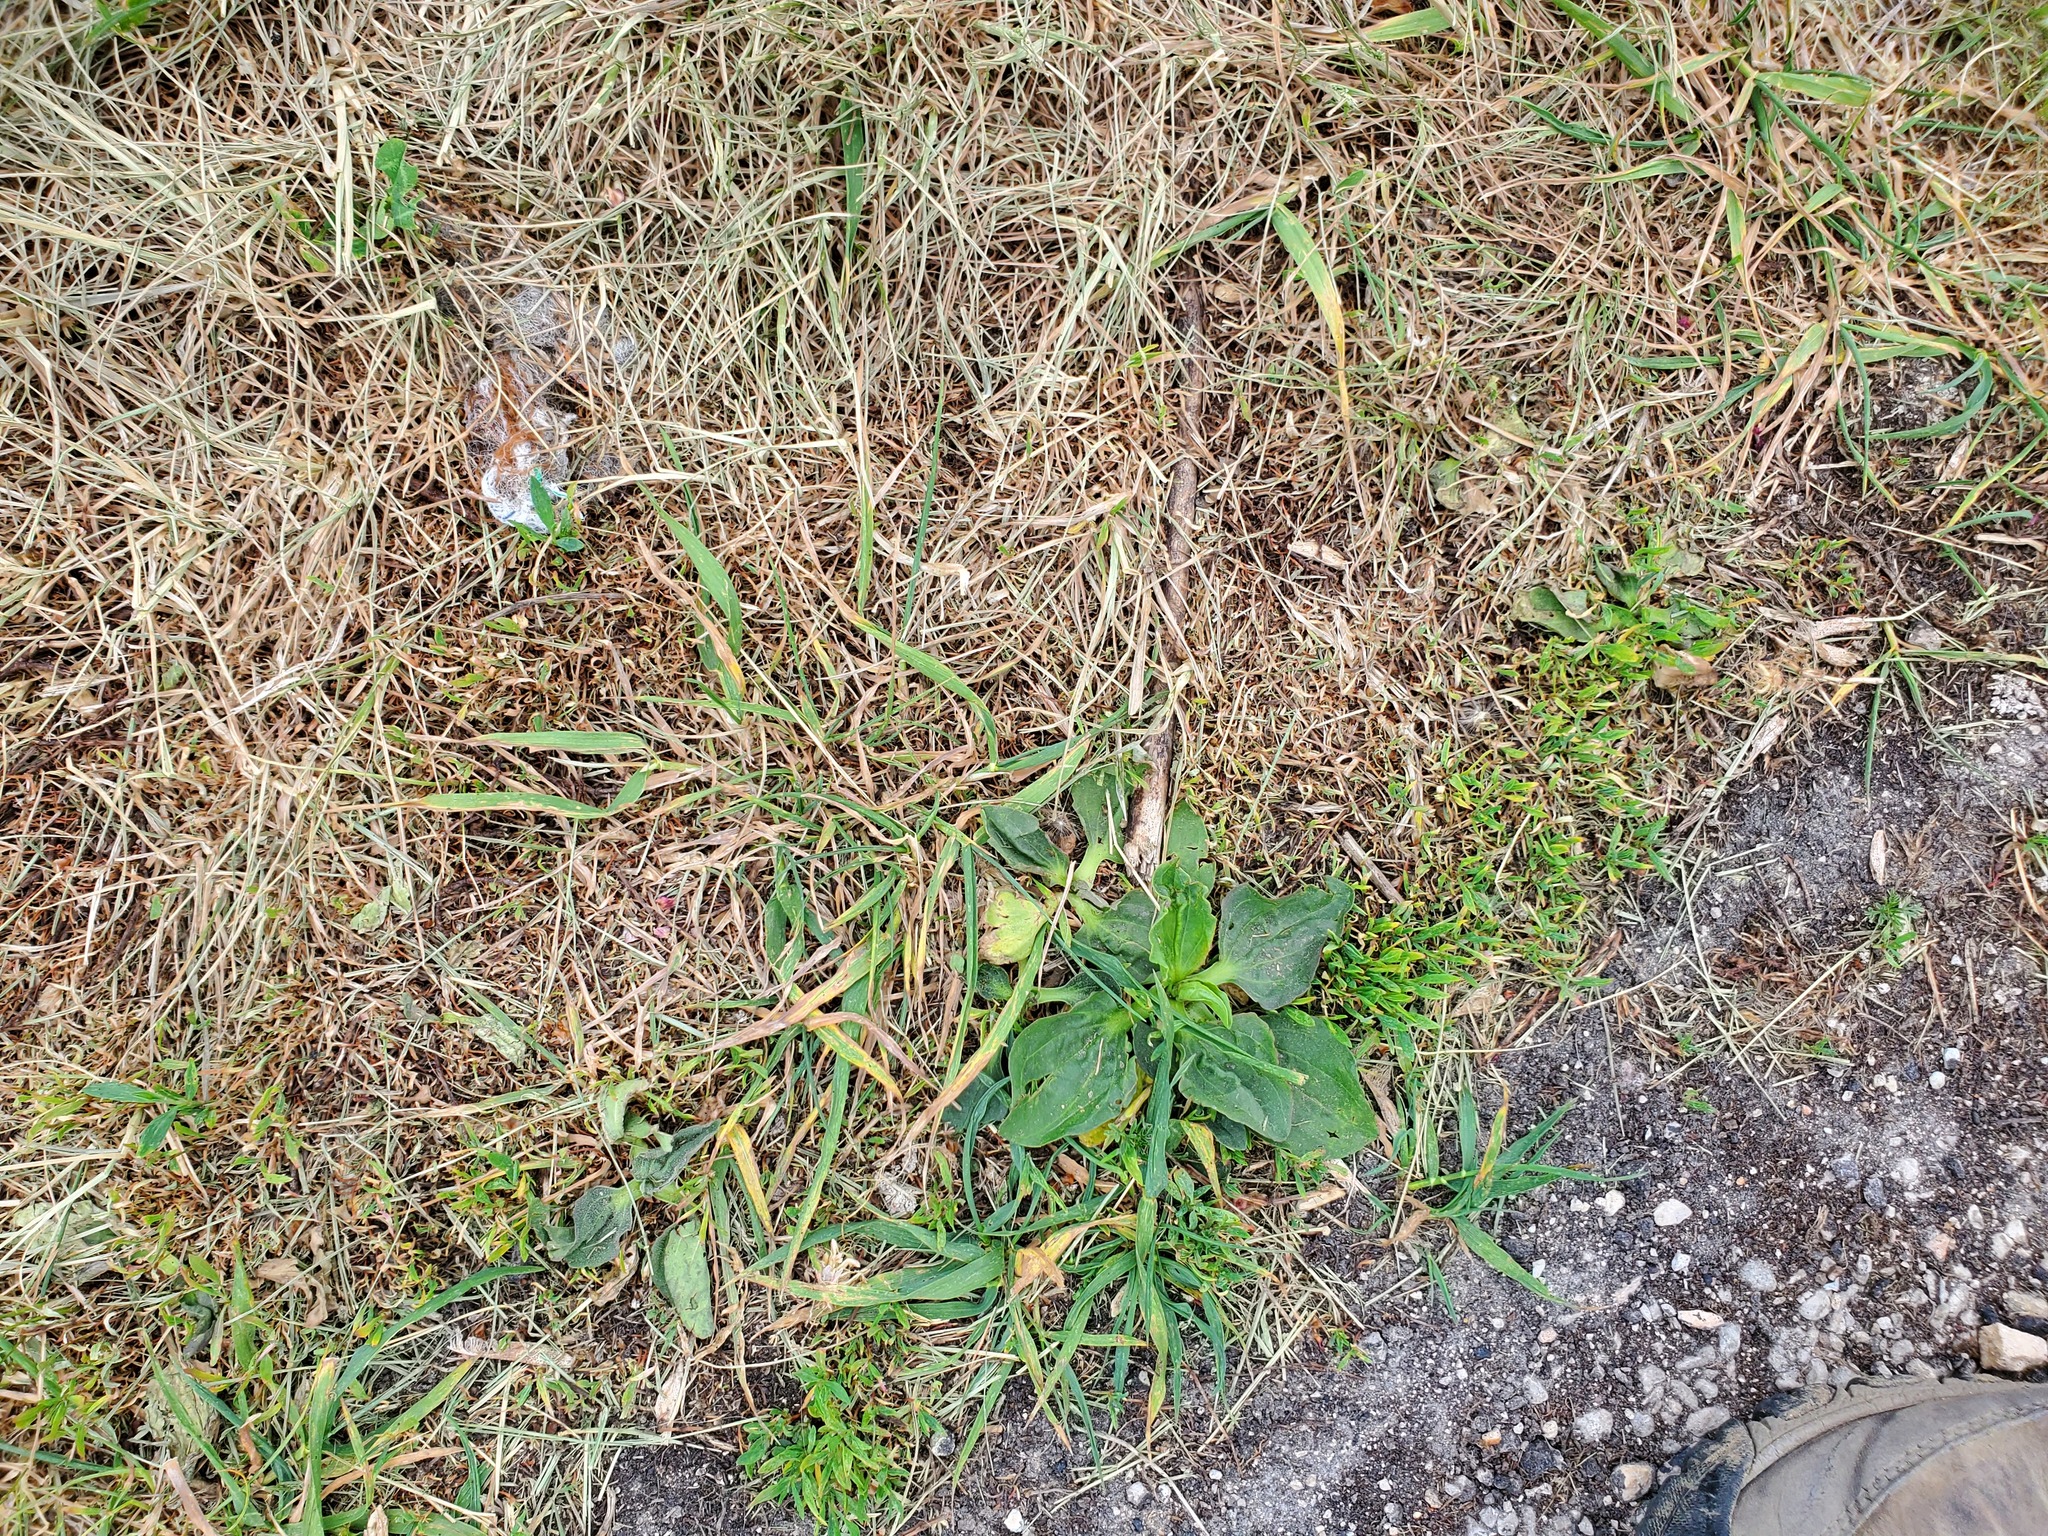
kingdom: Plantae
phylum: Tracheophyta
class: Magnoliopsida
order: Lamiales
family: Plantaginaceae
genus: Plantago
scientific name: Plantago major
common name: Common plantain
